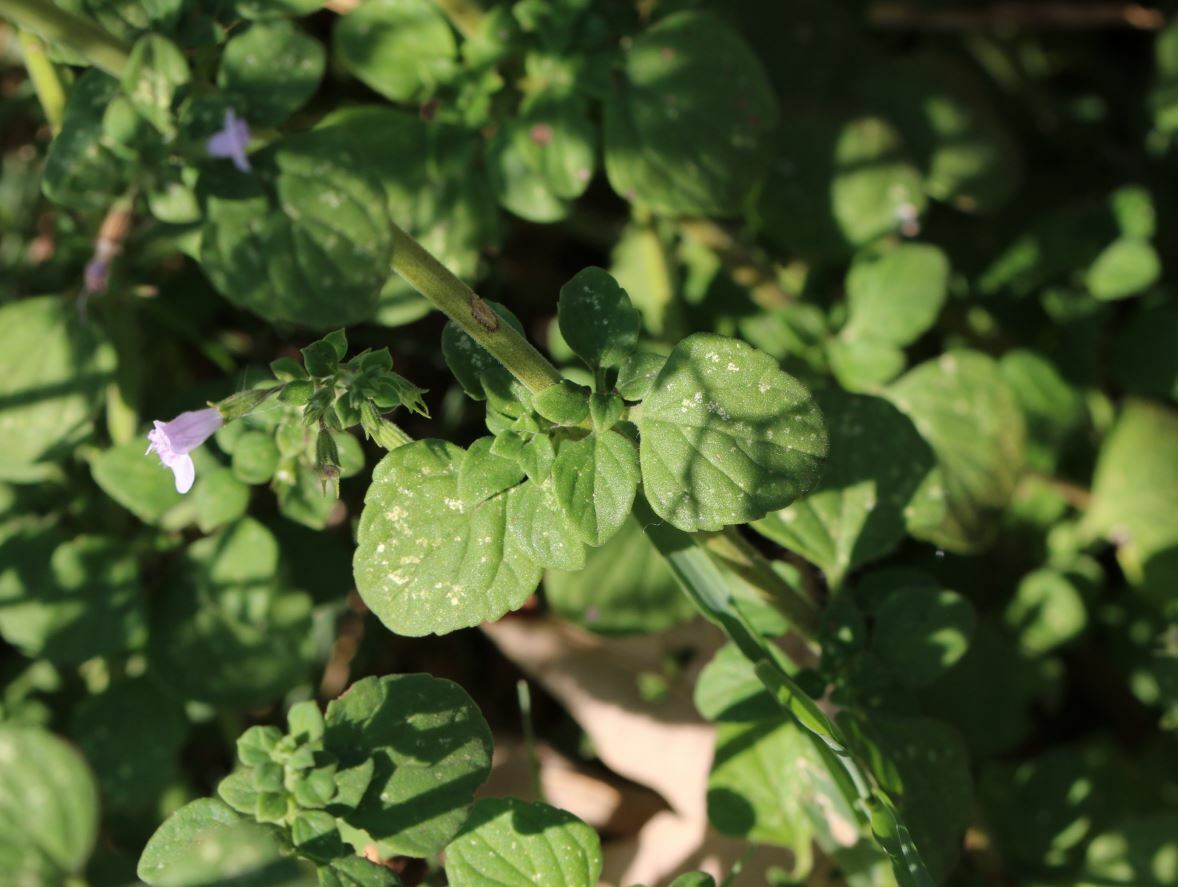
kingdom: Plantae
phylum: Tracheophyta
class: Magnoliopsida
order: Lamiales
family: Lamiaceae
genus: Clinopodium
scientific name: Clinopodium nepeta
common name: Lesser calamint
